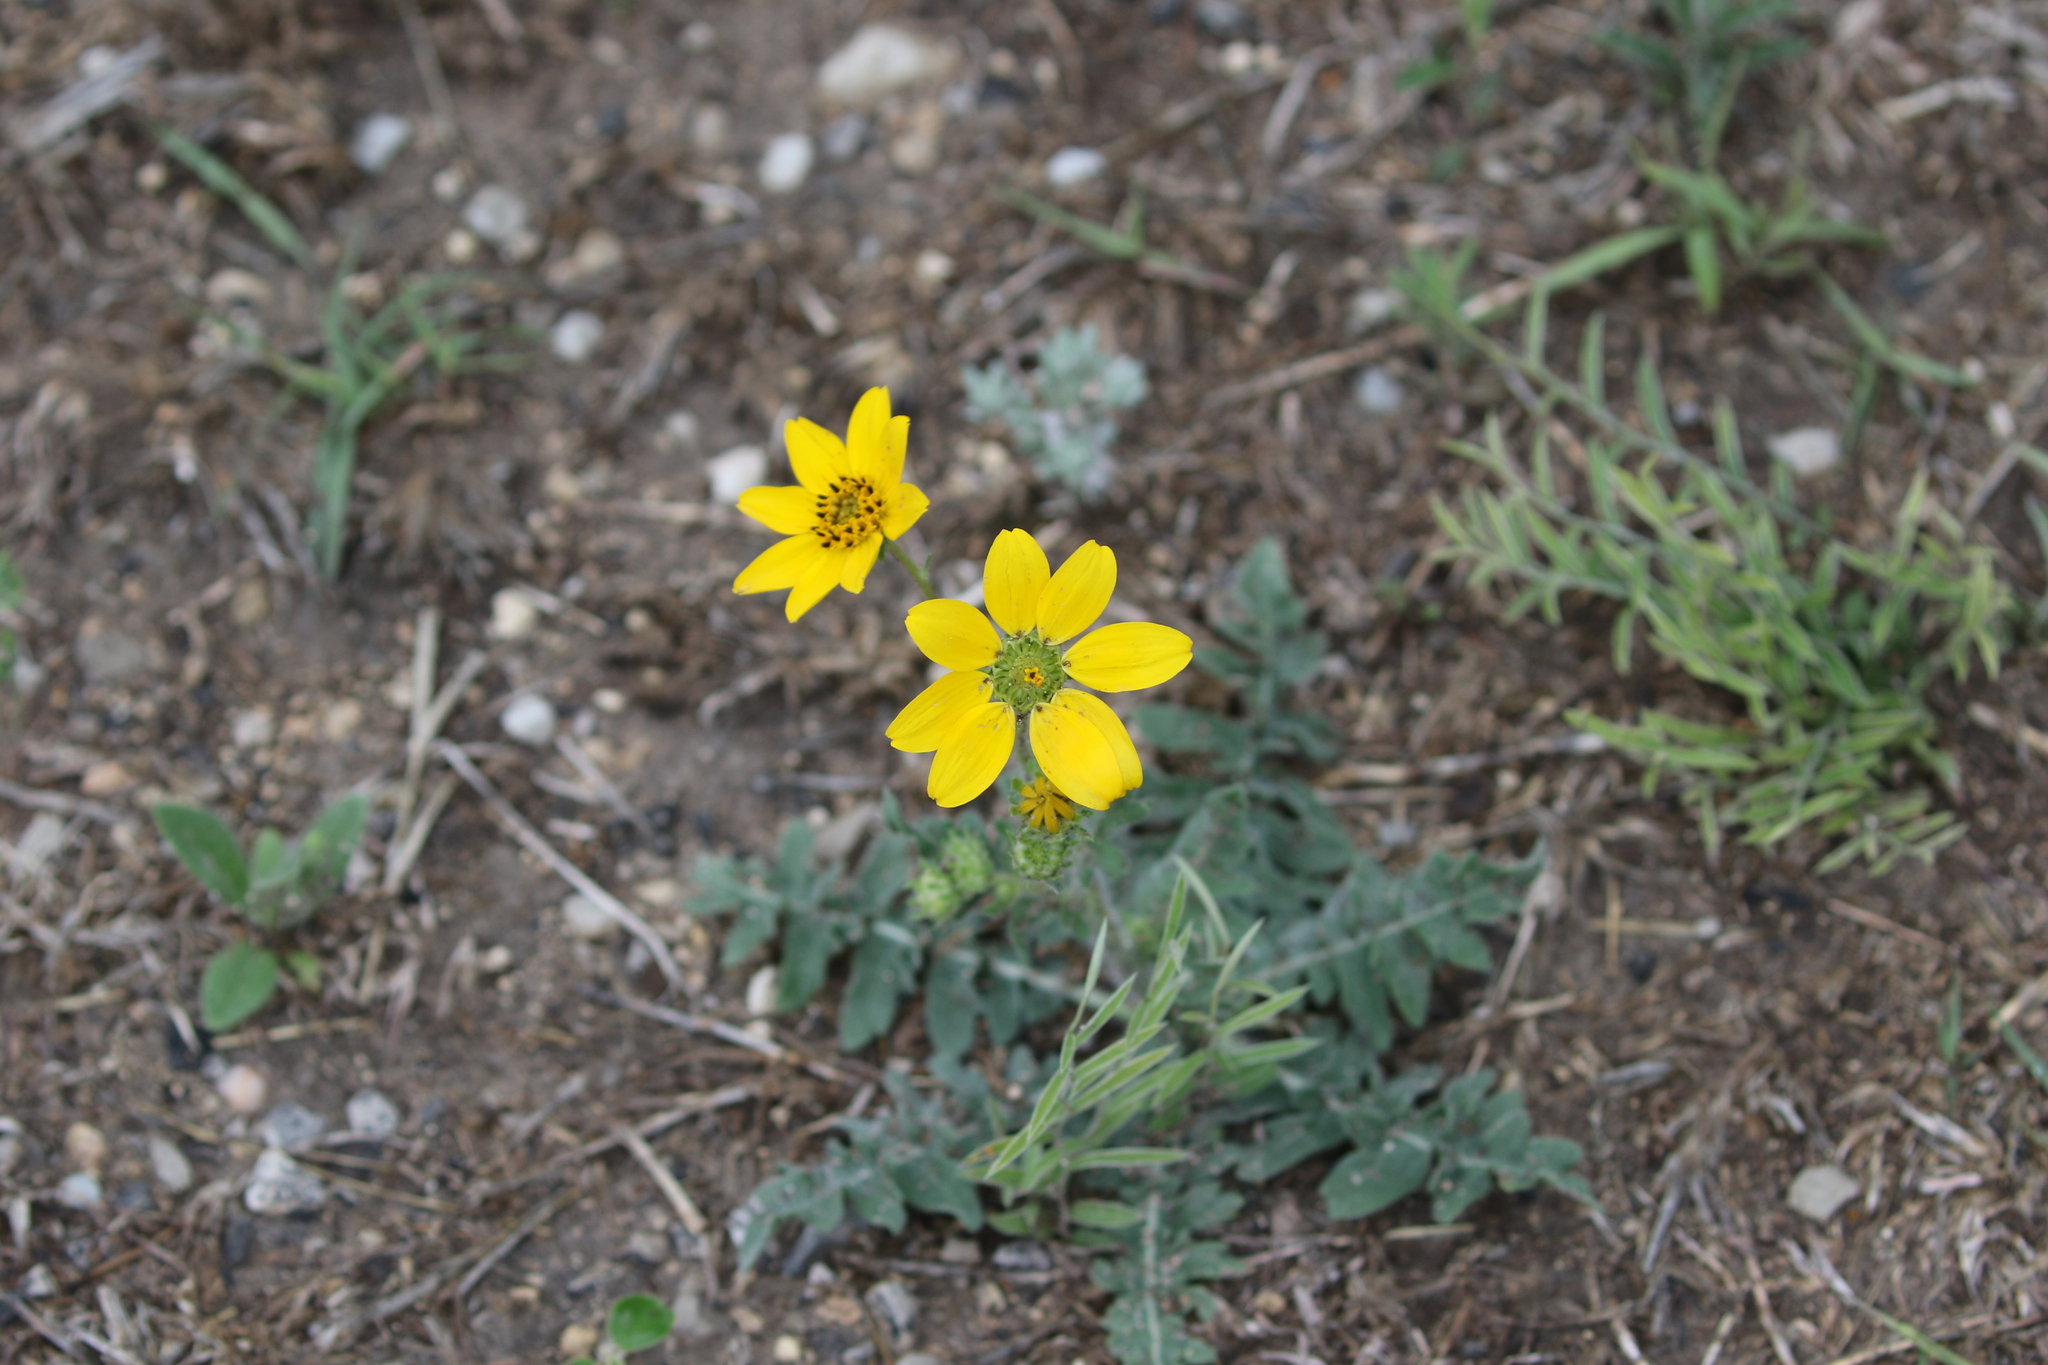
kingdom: Plantae
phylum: Tracheophyta
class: Magnoliopsida
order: Asterales
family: Asteraceae
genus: Engelmannia
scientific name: Engelmannia peristenia
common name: Engelmann's daisy
